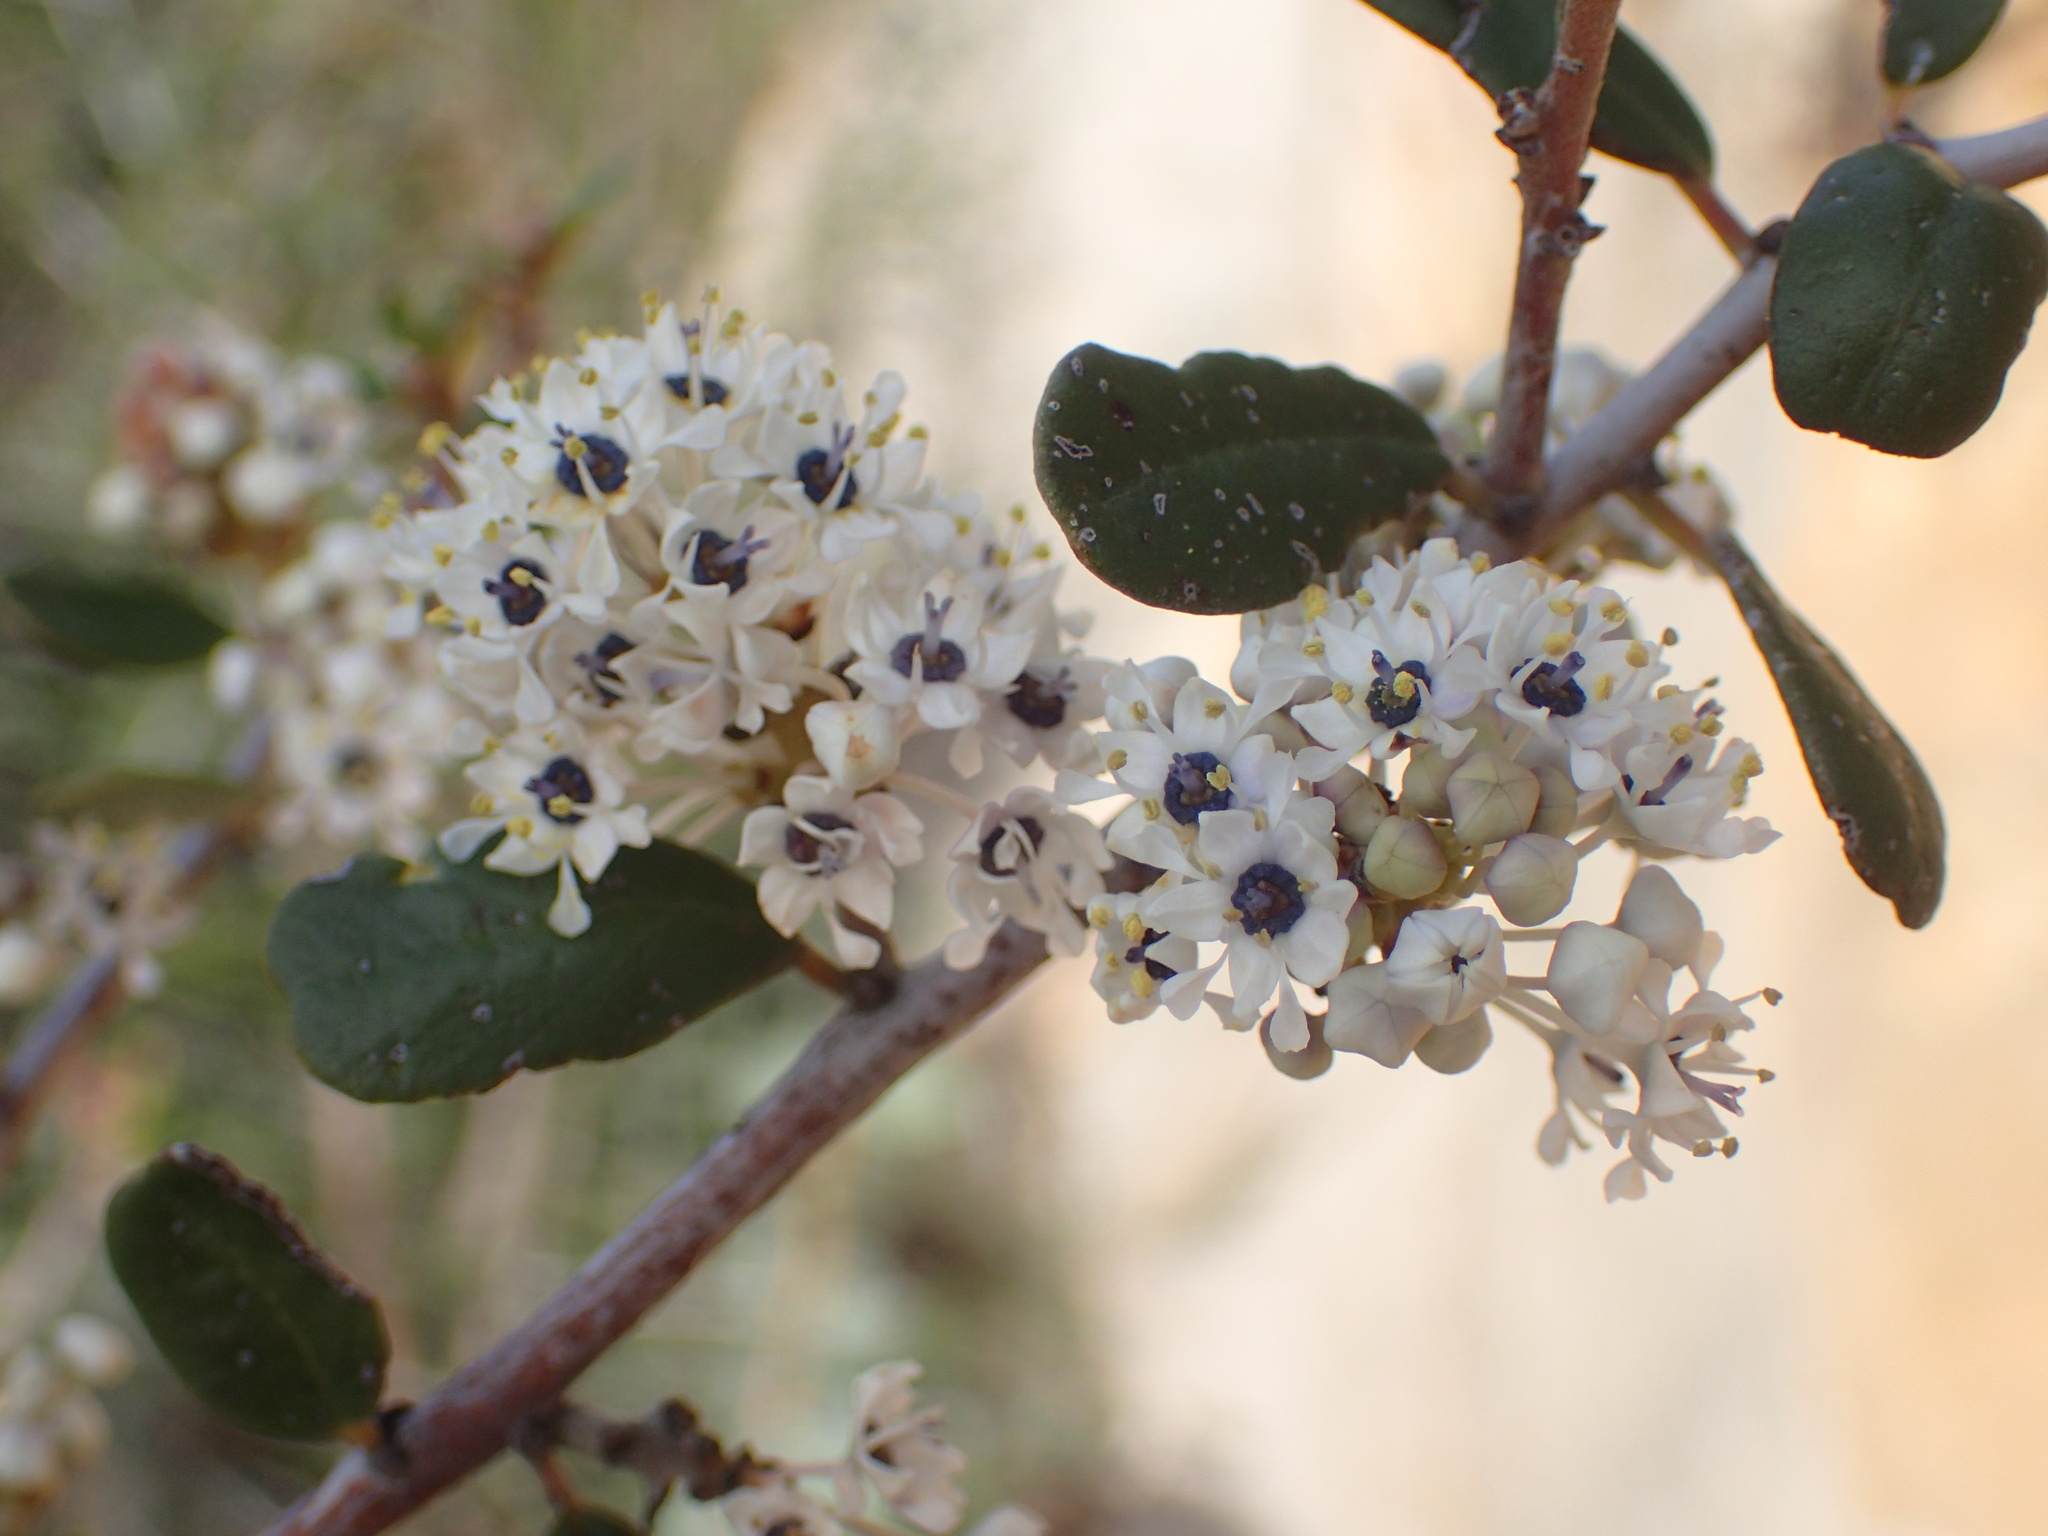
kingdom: Plantae
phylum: Tracheophyta
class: Magnoliopsida
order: Rosales
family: Rhamnaceae
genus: Ceanothus
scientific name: Ceanothus megacarpus
